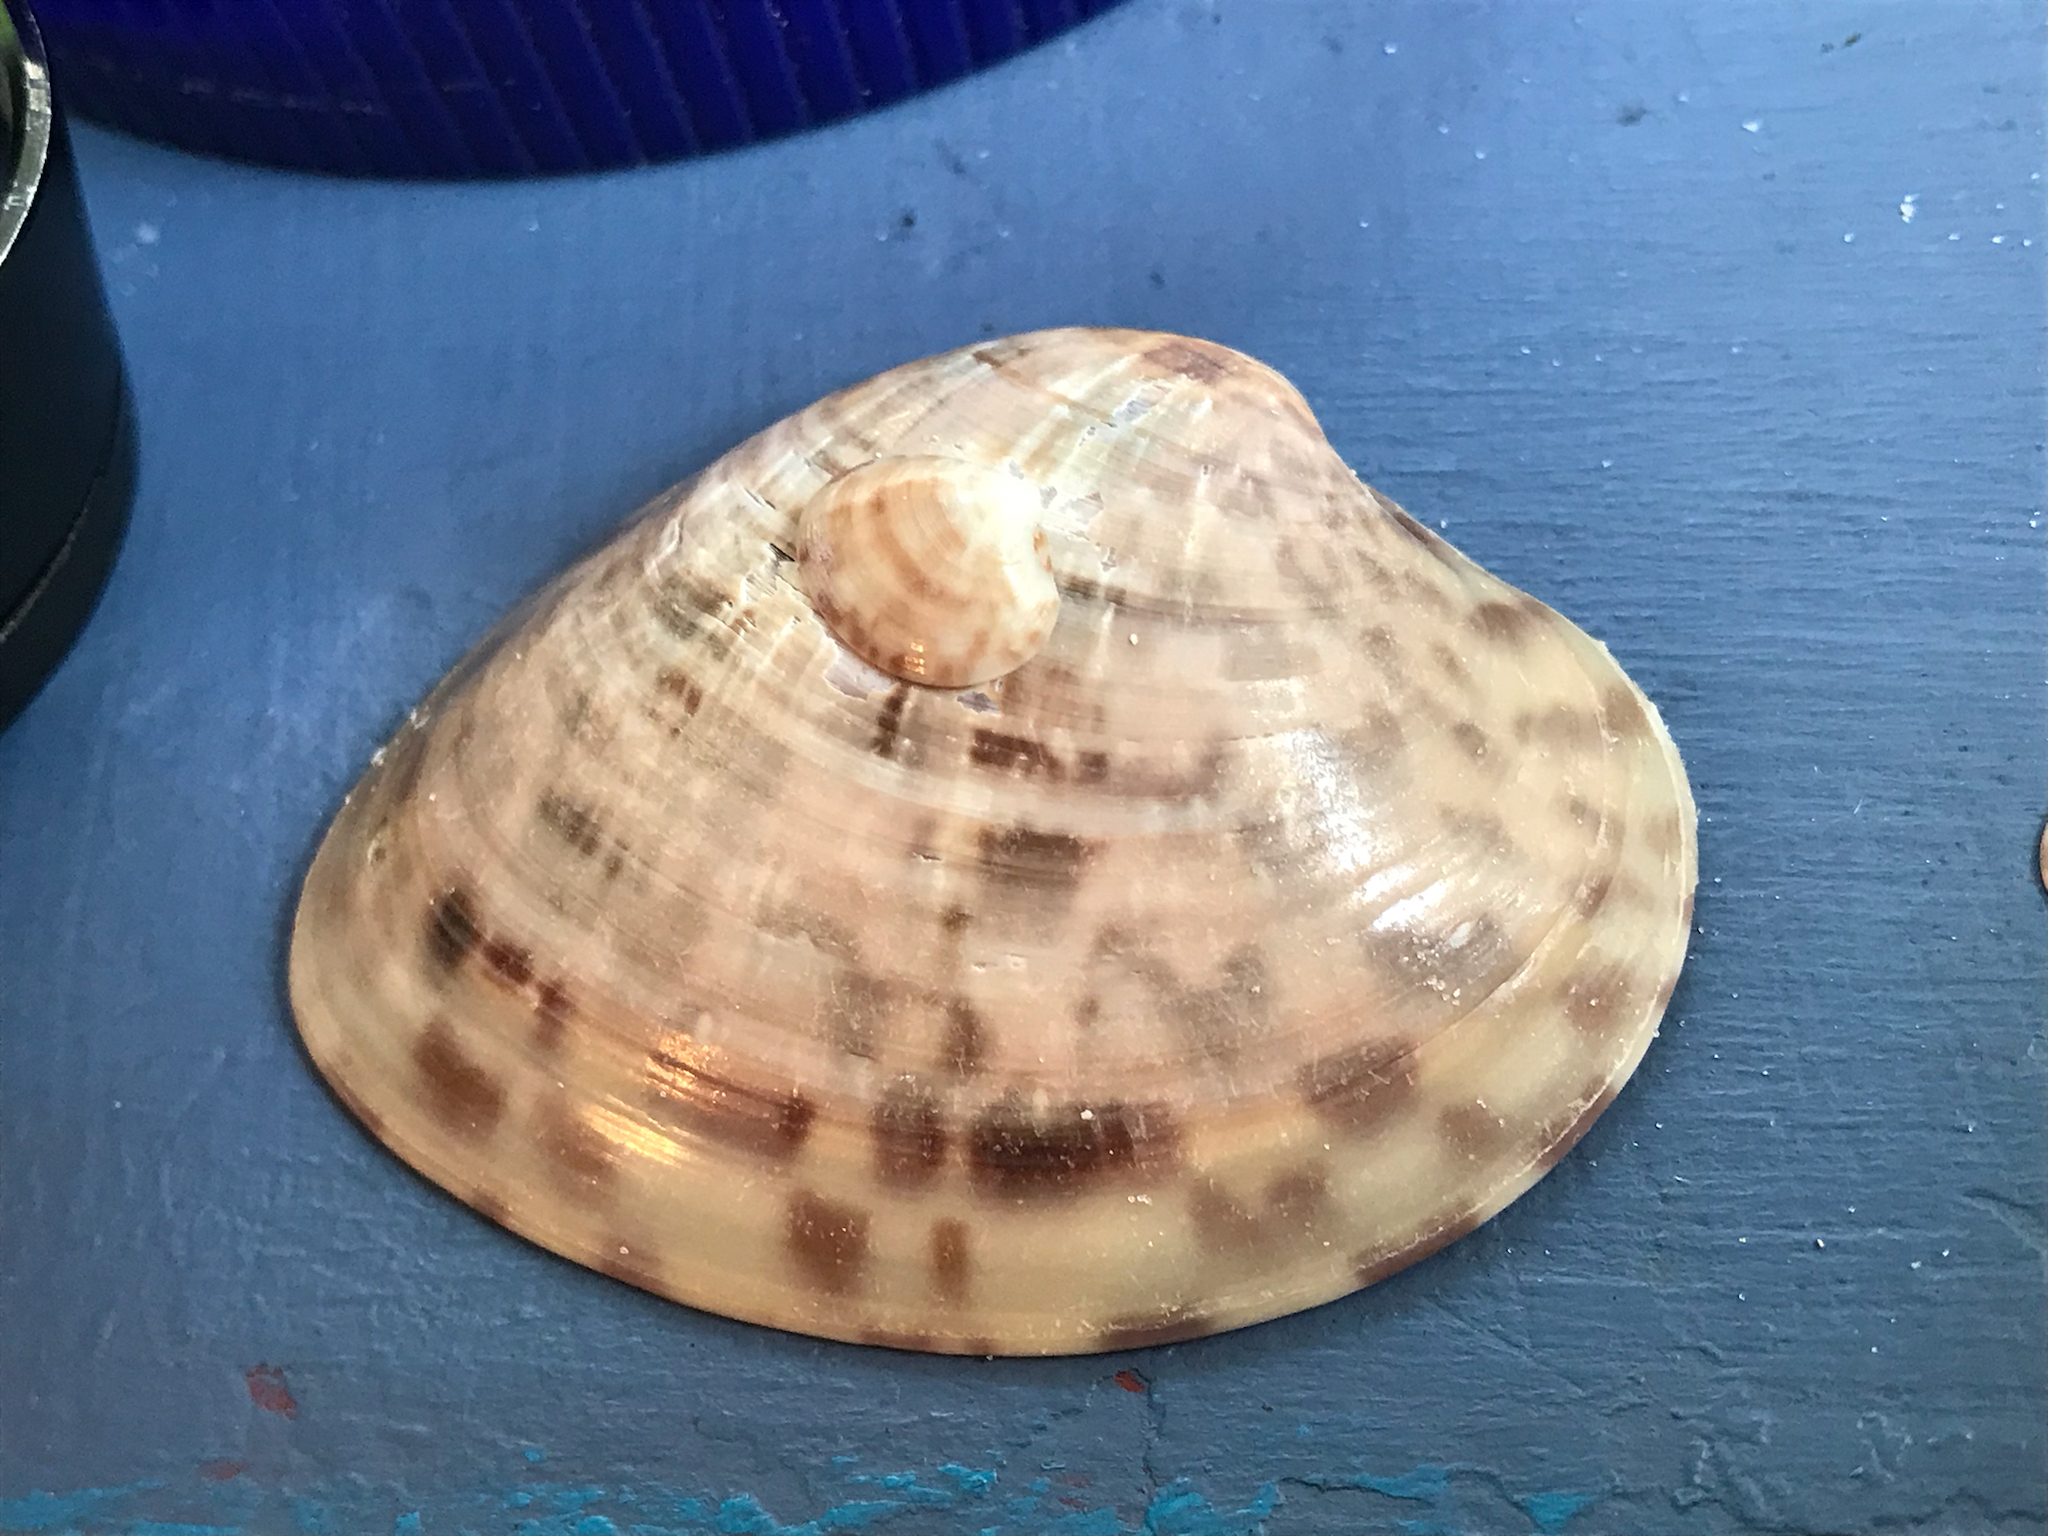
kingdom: Animalia
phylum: Mollusca
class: Bivalvia
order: Venerida
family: Veneridae
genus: Megapitaria
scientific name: Megapitaria maculata
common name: Calico clam
